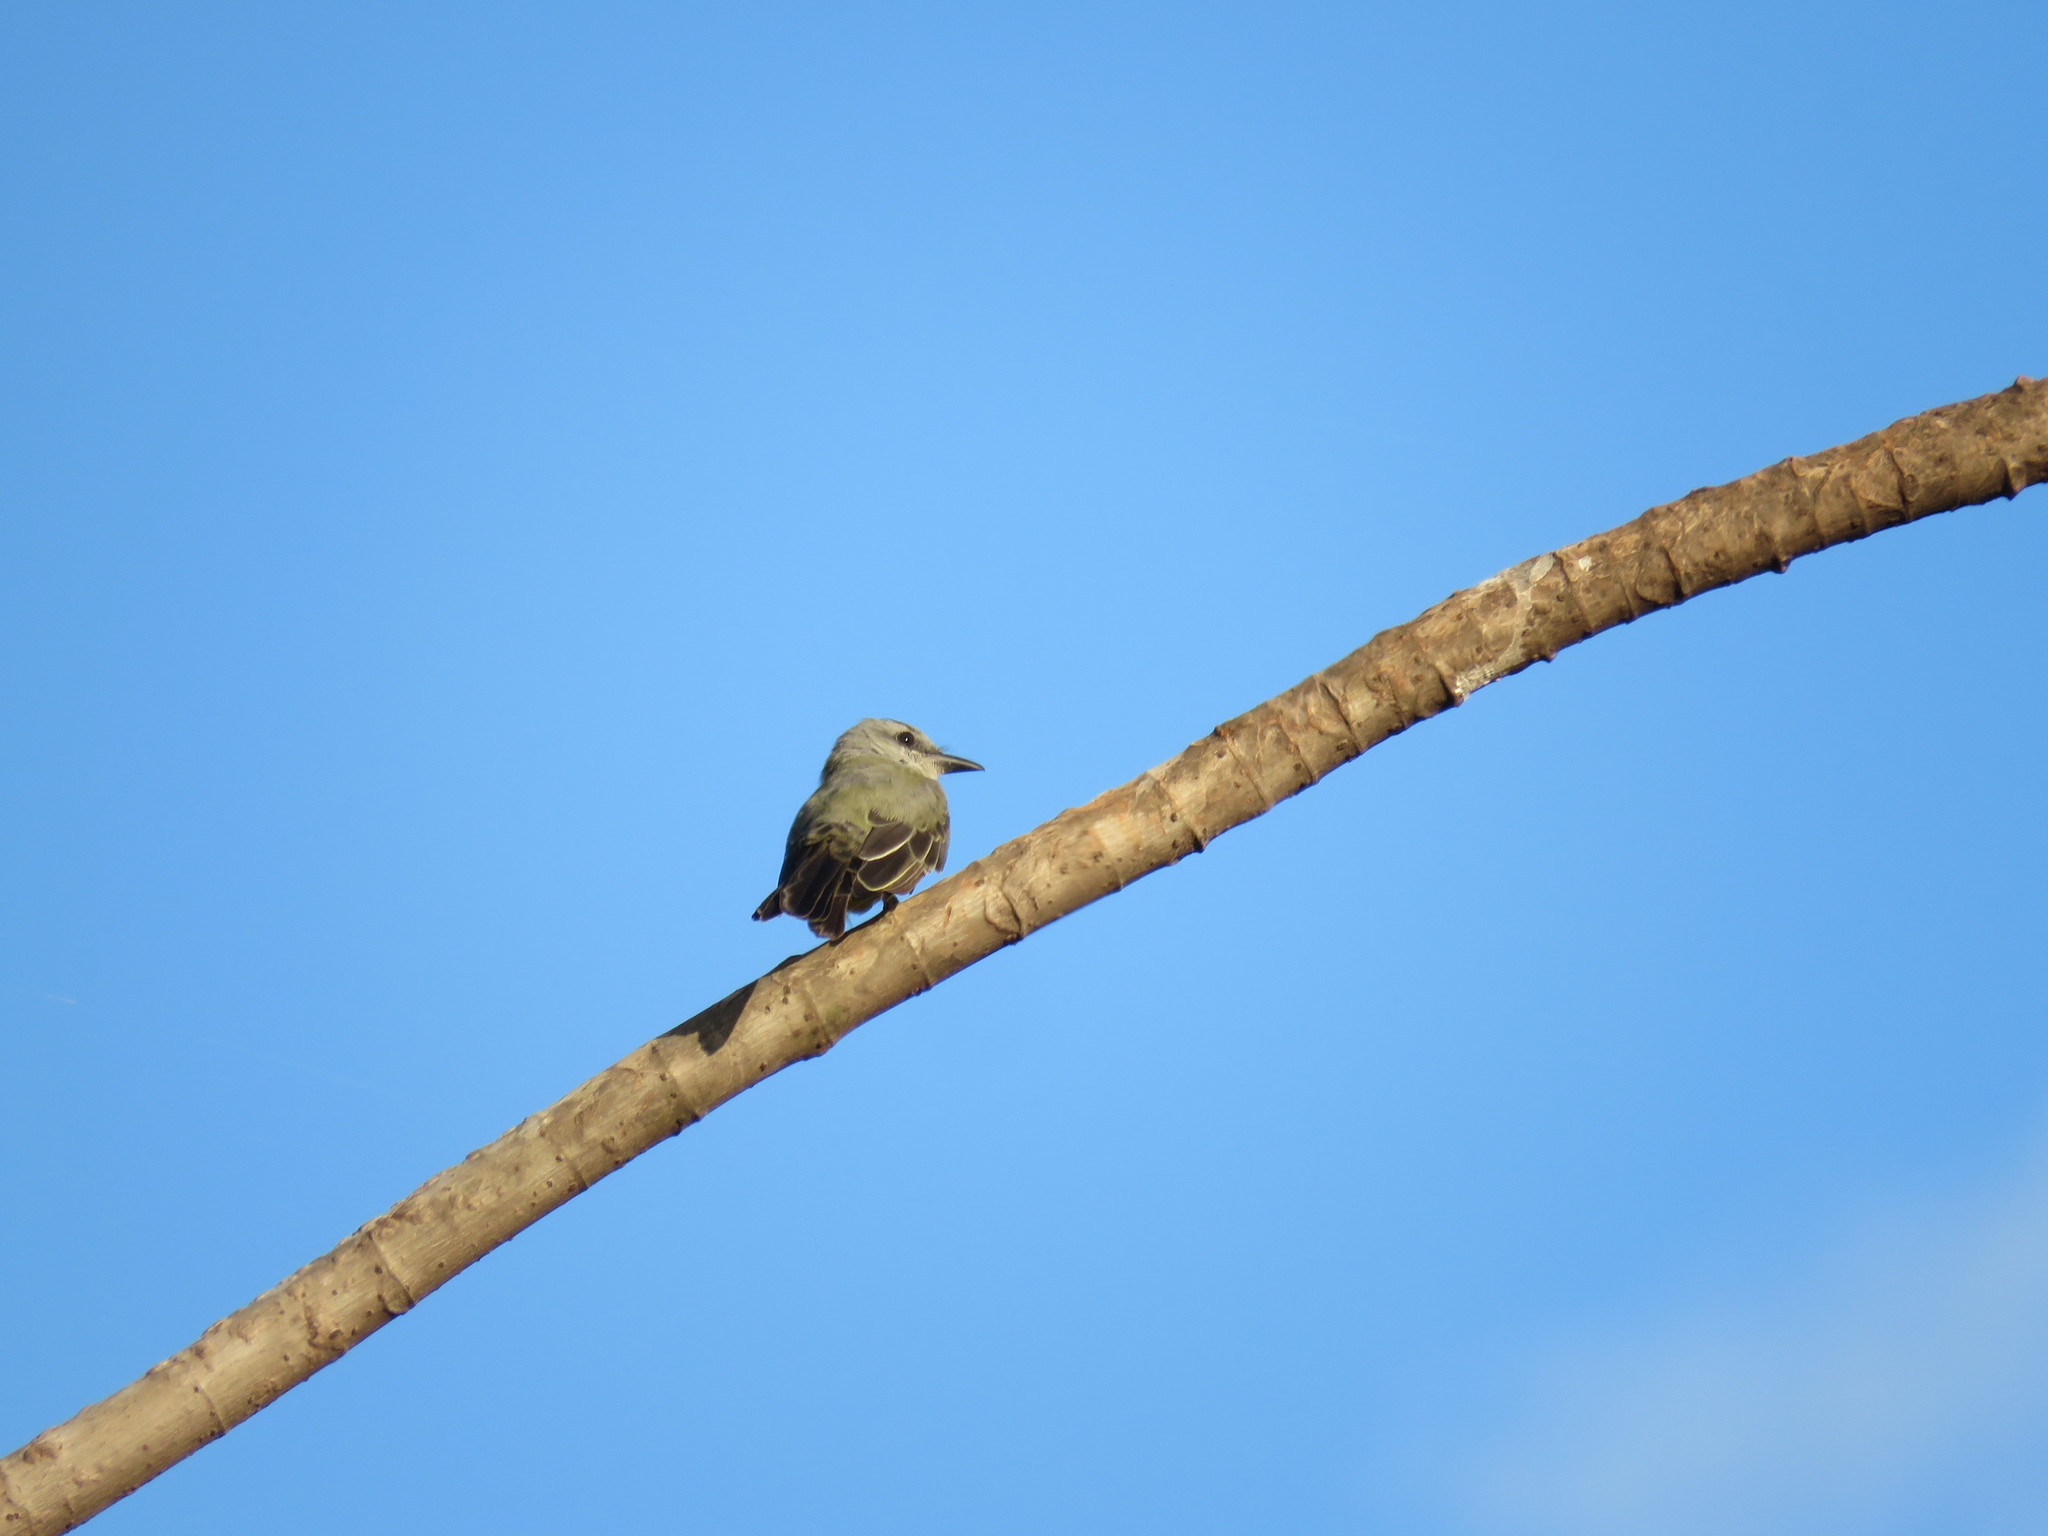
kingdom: Animalia
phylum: Chordata
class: Aves
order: Passeriformes
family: Tyrannidae
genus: Tyrannus
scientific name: Tyrannus melancholicus
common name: Tropical kingbird
